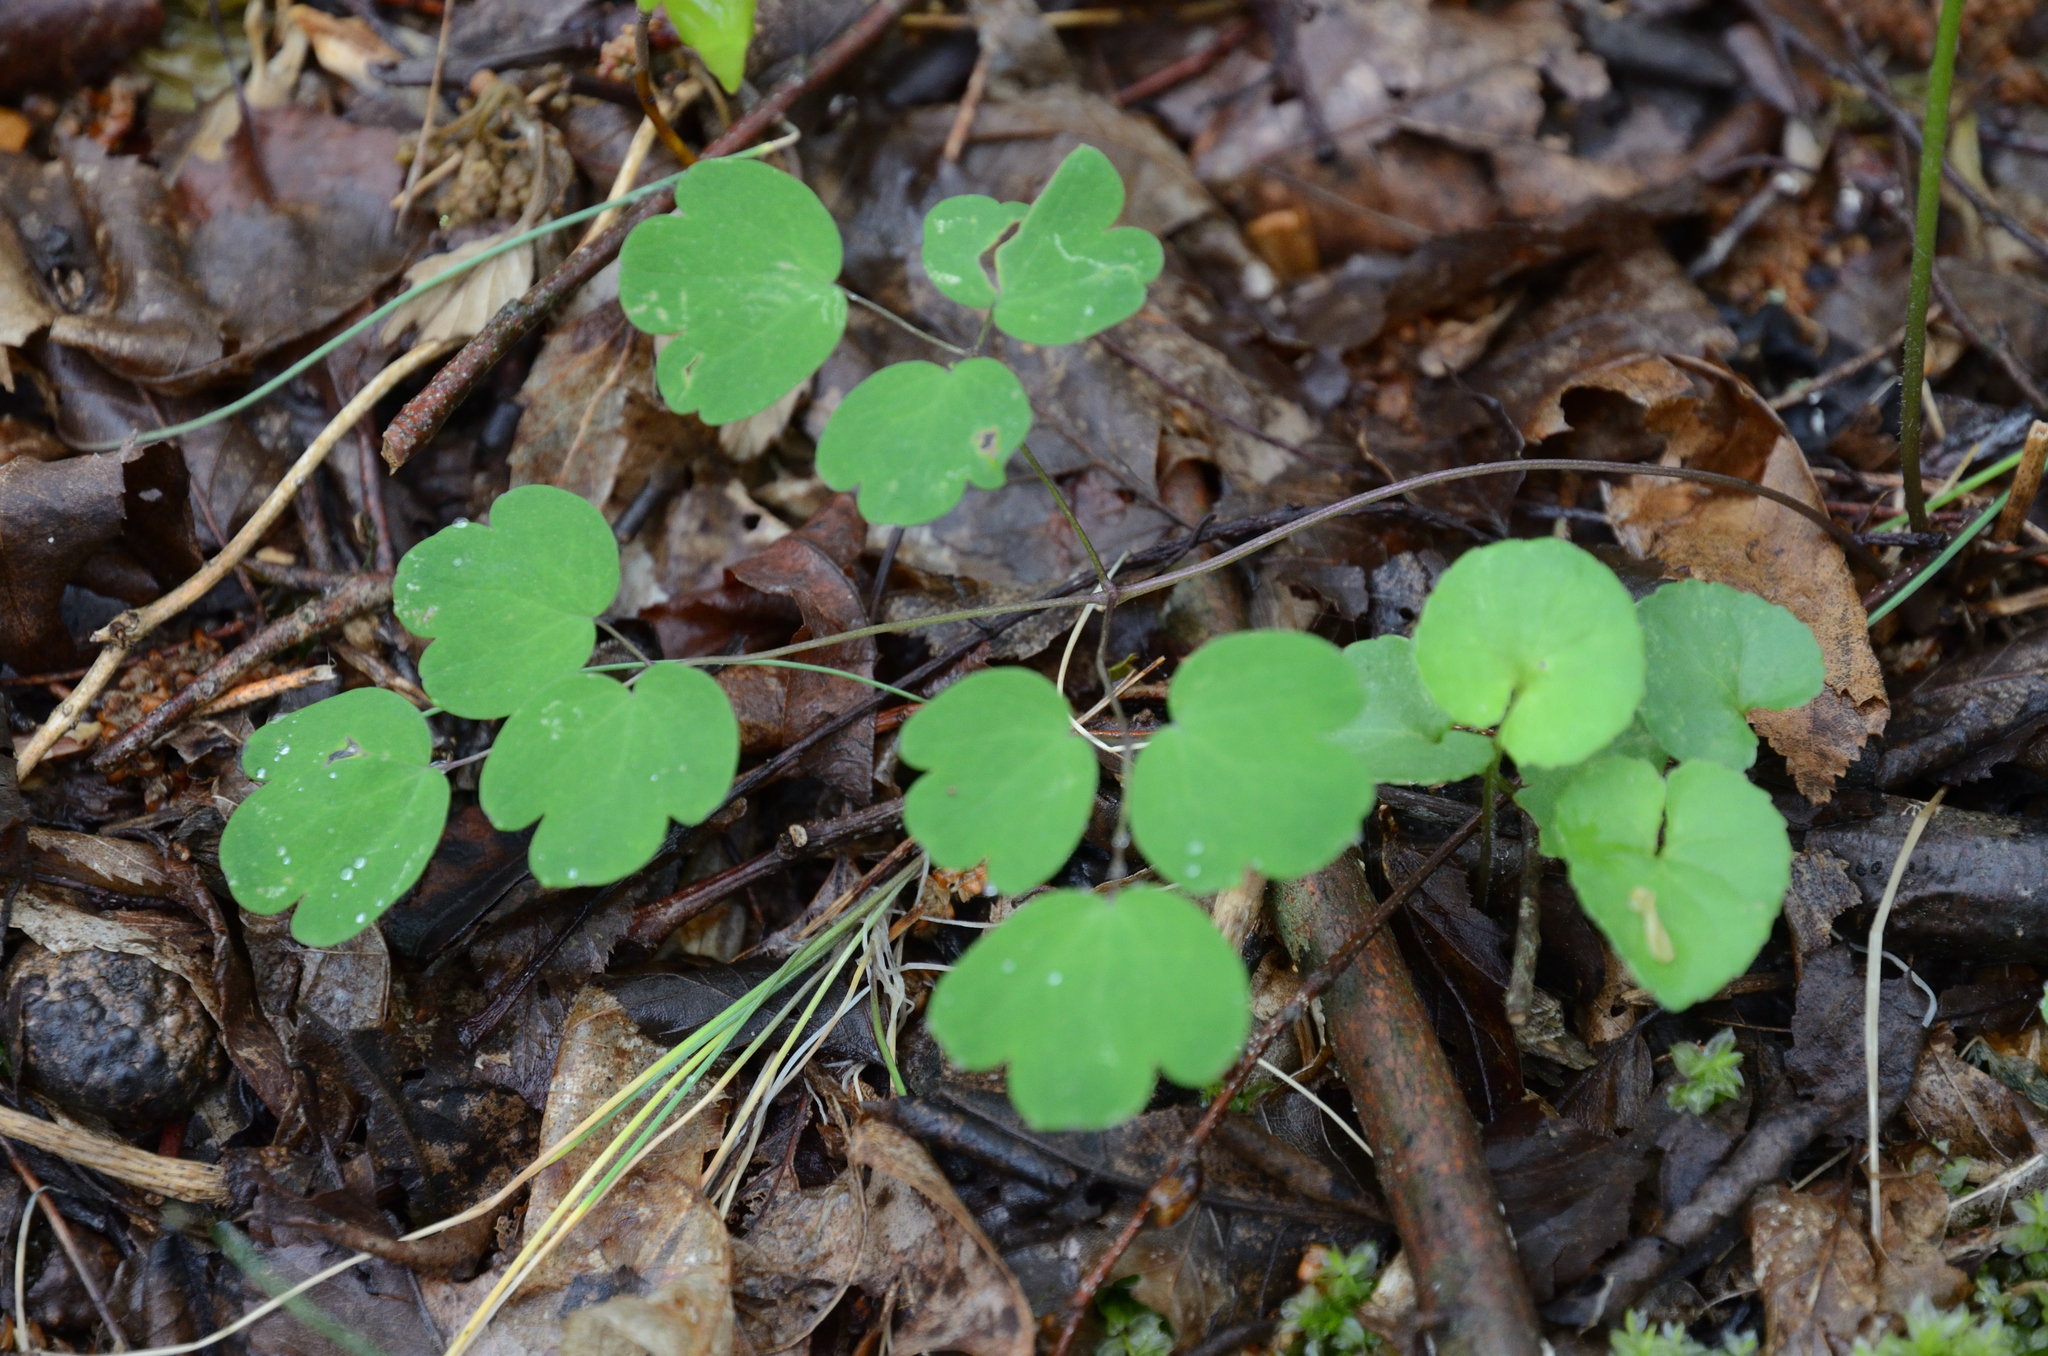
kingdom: Plantae
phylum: Tracheophyta
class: Magnoliopsida
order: Ranunculales
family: Ranunculaceae
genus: Thalictrum
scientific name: Thalictrum thalictroides
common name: Rue-anemone
